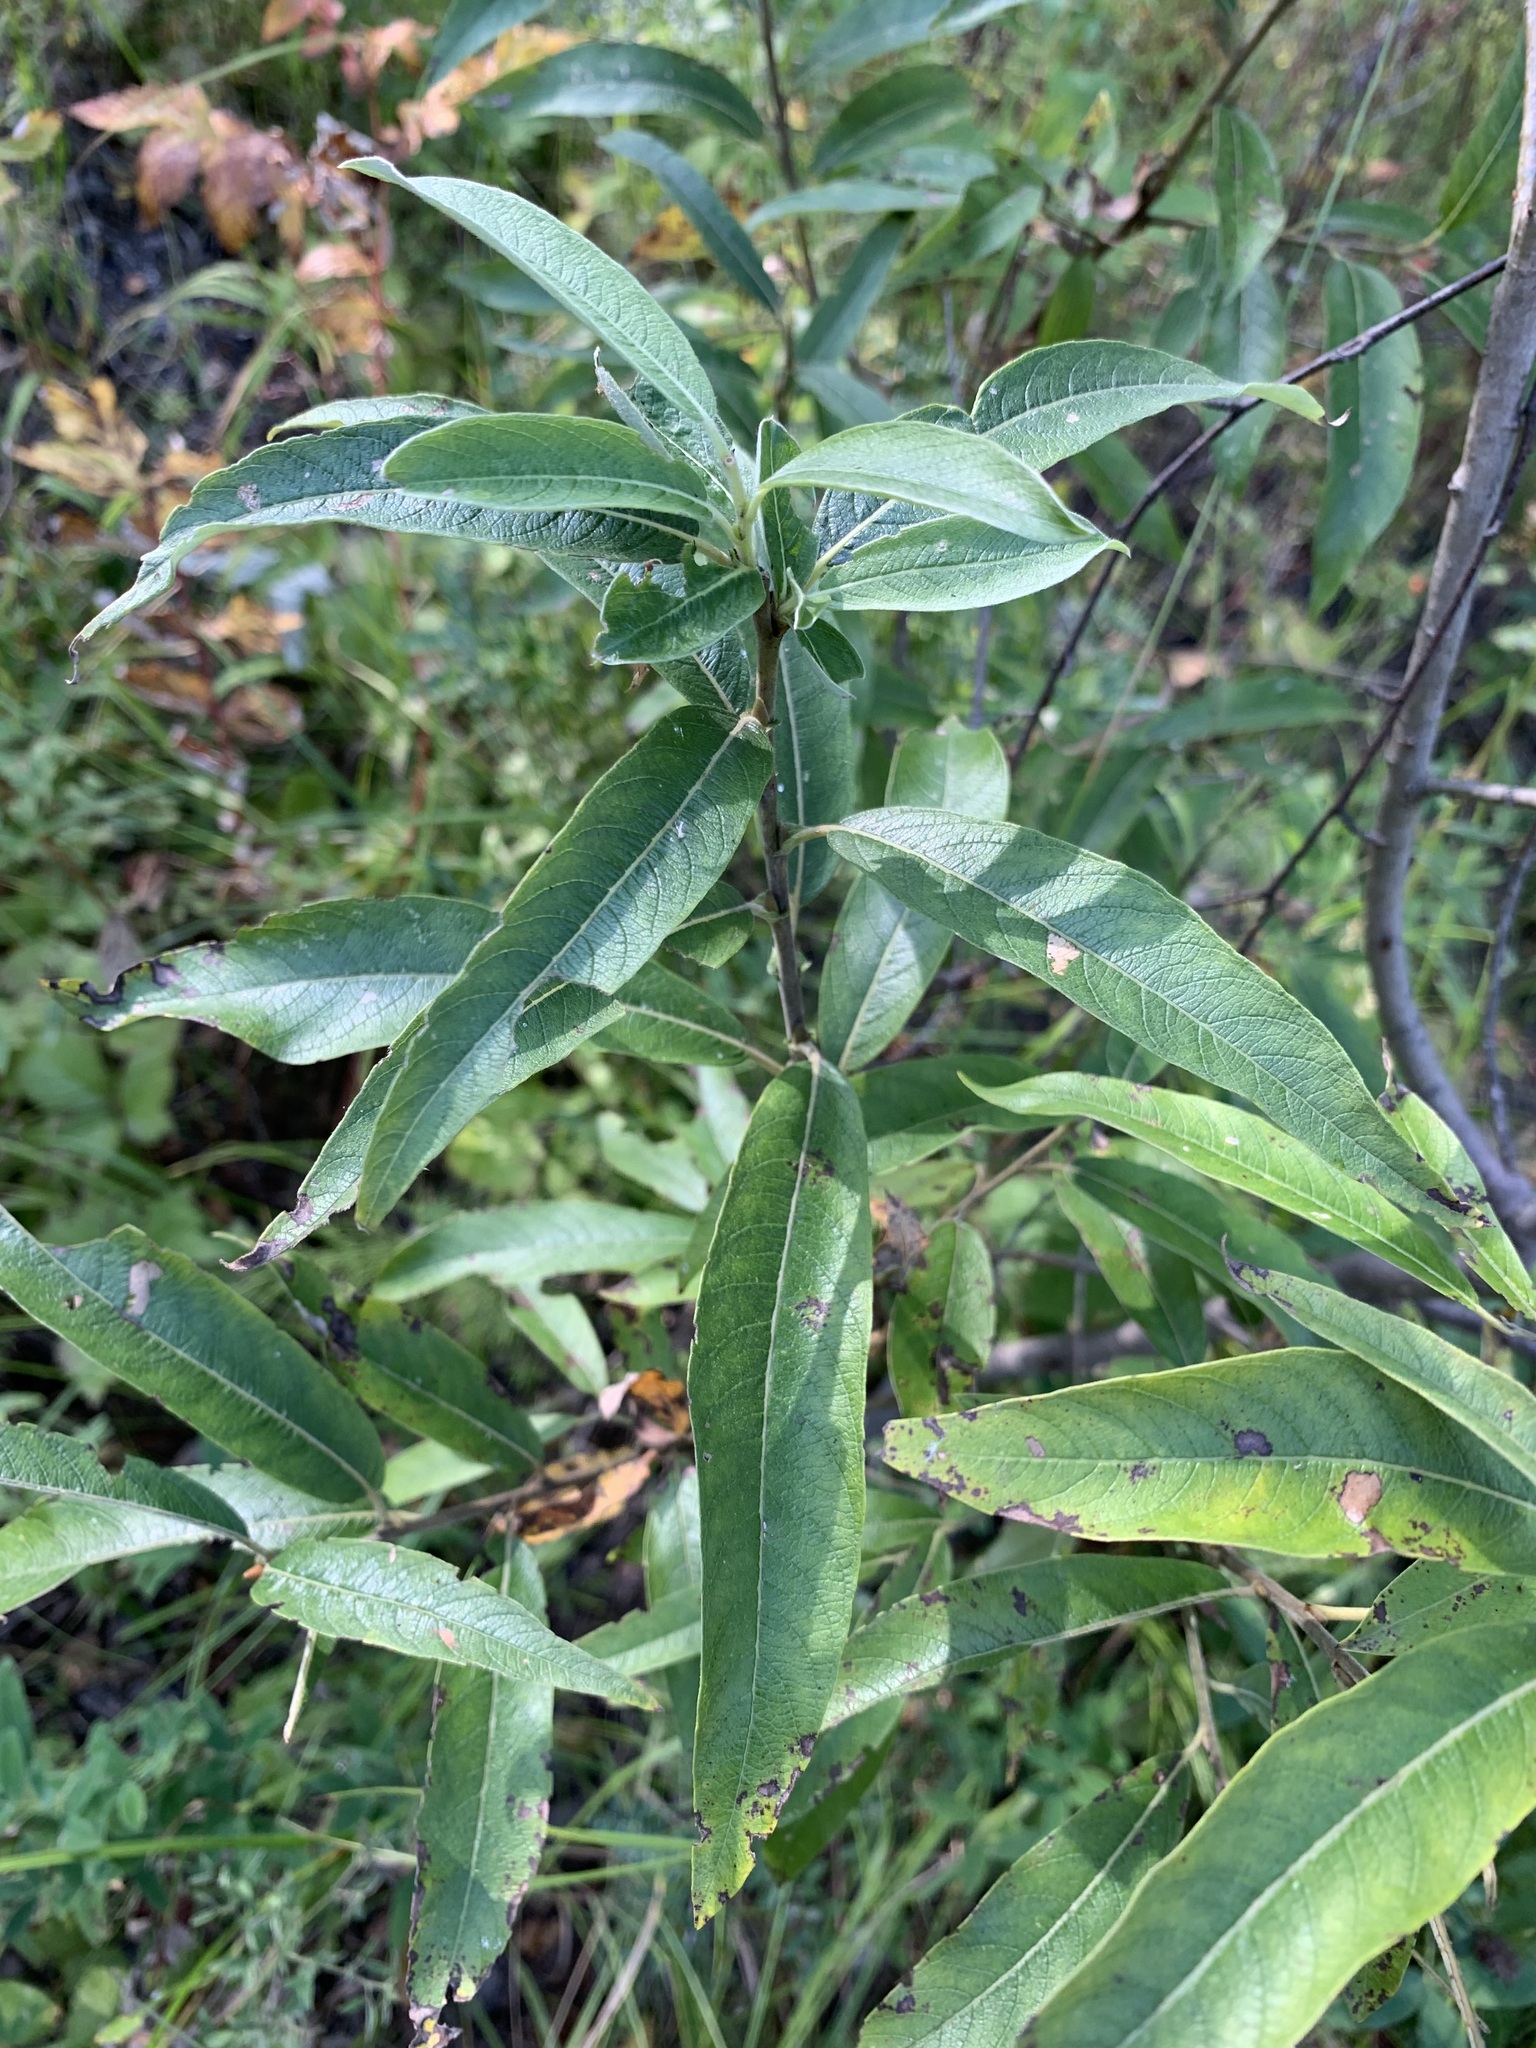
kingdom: Plantae
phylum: Tracheophyta
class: Magnoliopsida
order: Malpighiales
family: Salicaceae
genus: Salix
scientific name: Salix gmelinii
